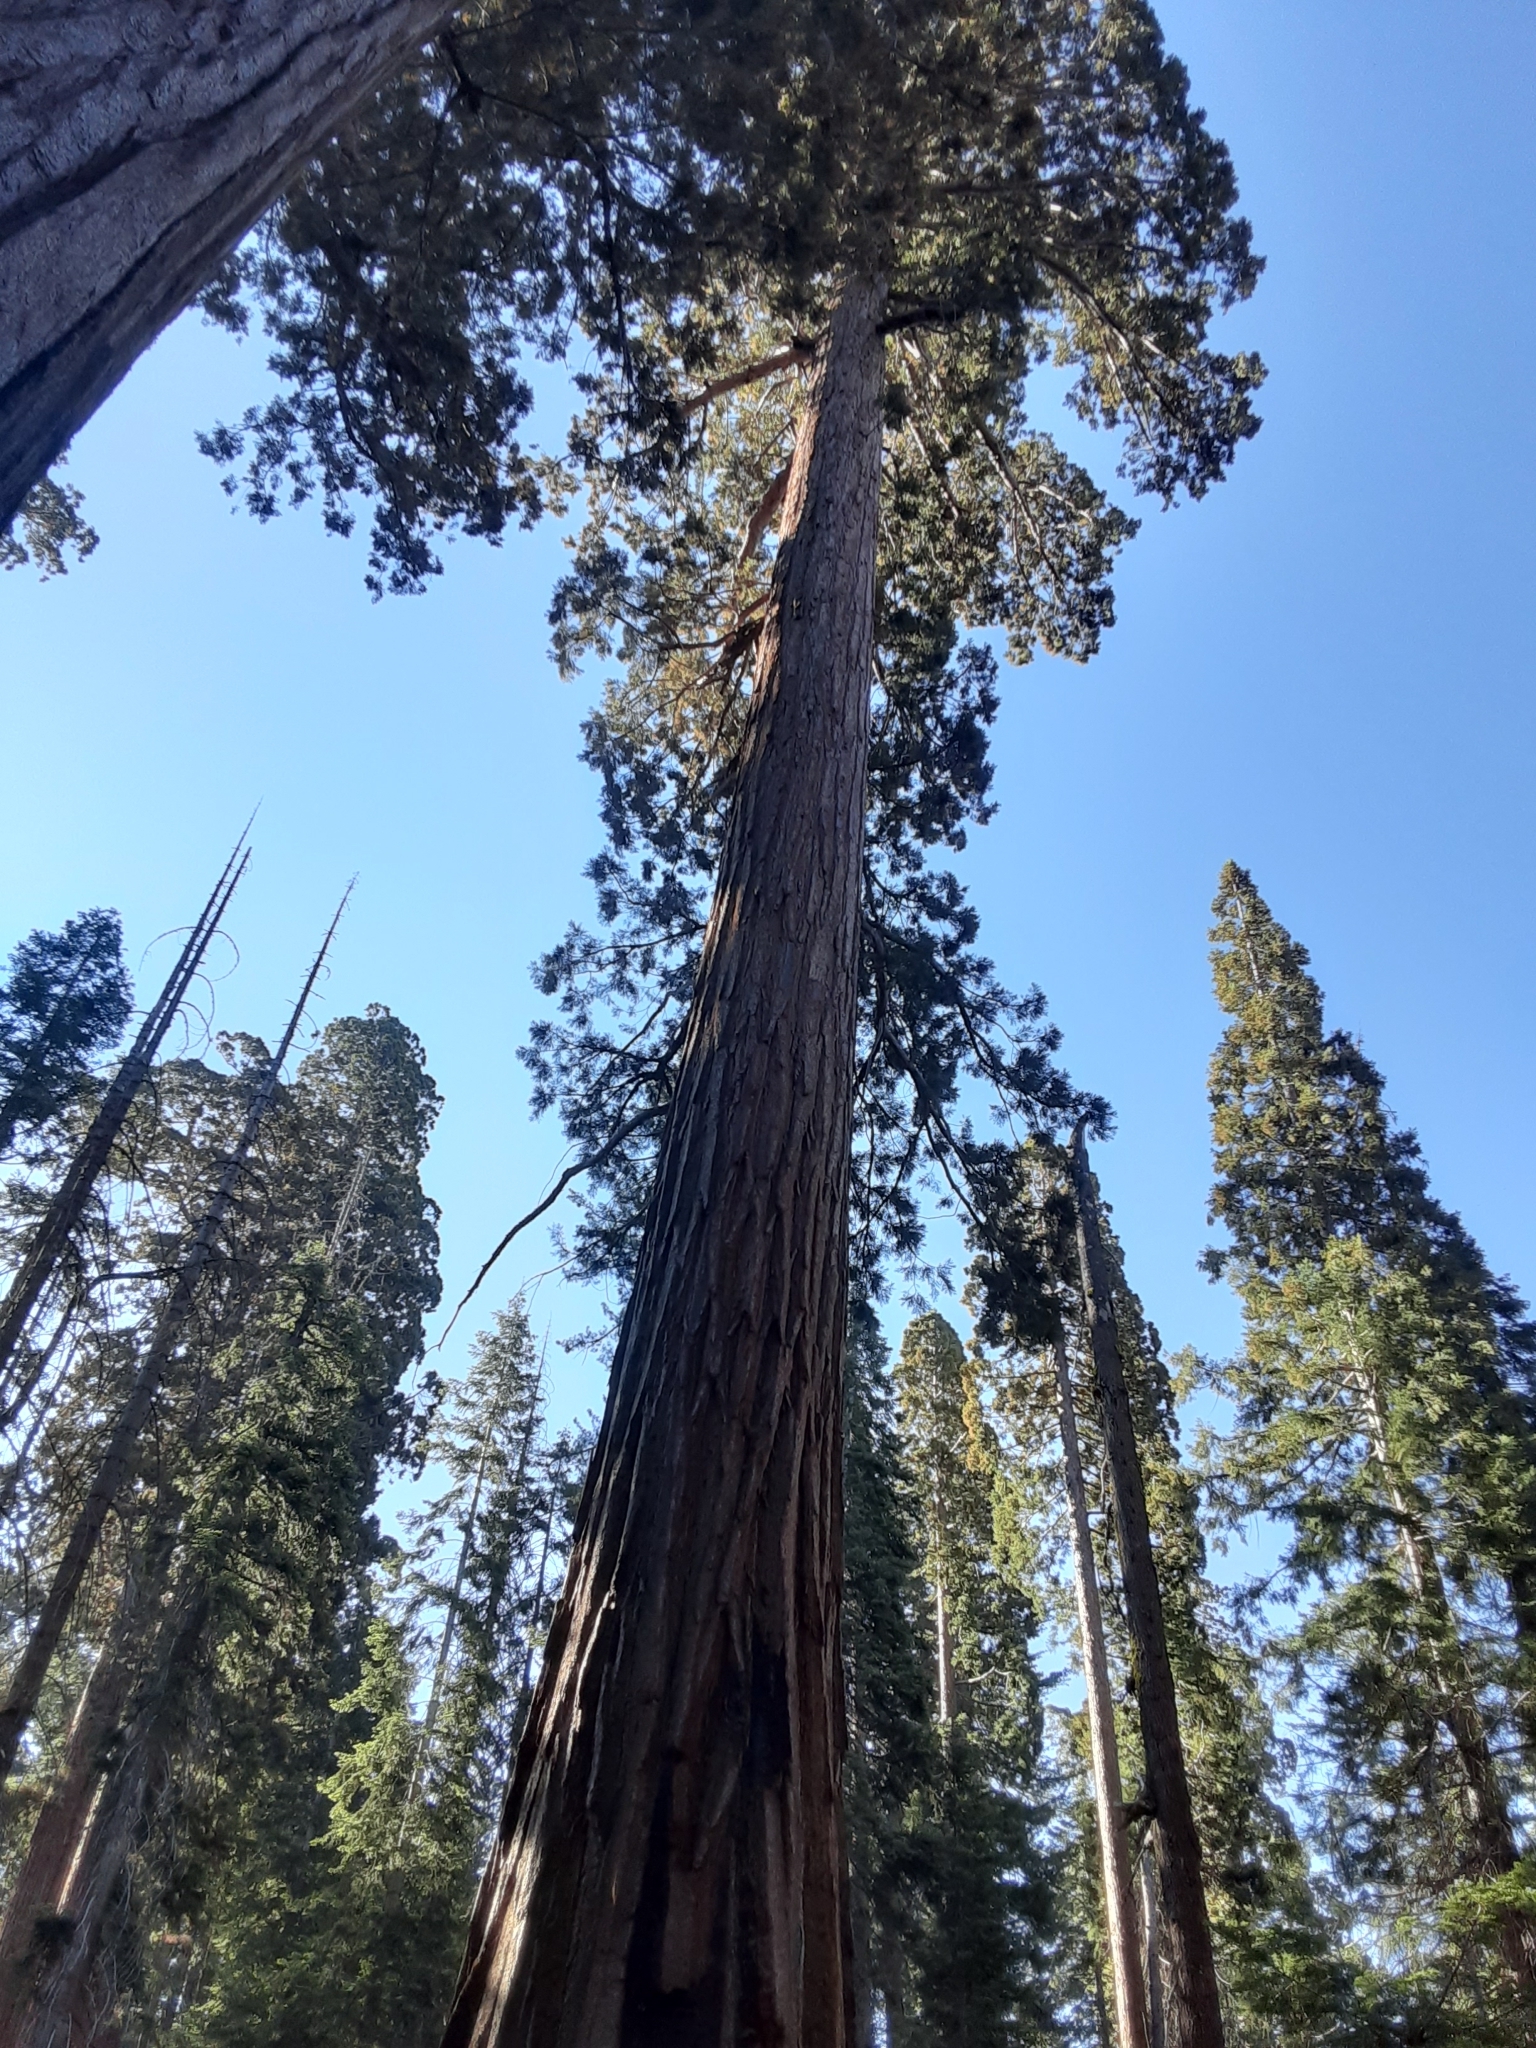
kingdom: Plantae
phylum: Tracheophyta
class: Pinopsida
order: Pinales
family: Cupressaceae
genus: Sequoiadendron
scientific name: Sequoiadendron giganteum
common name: Wellingtonia
